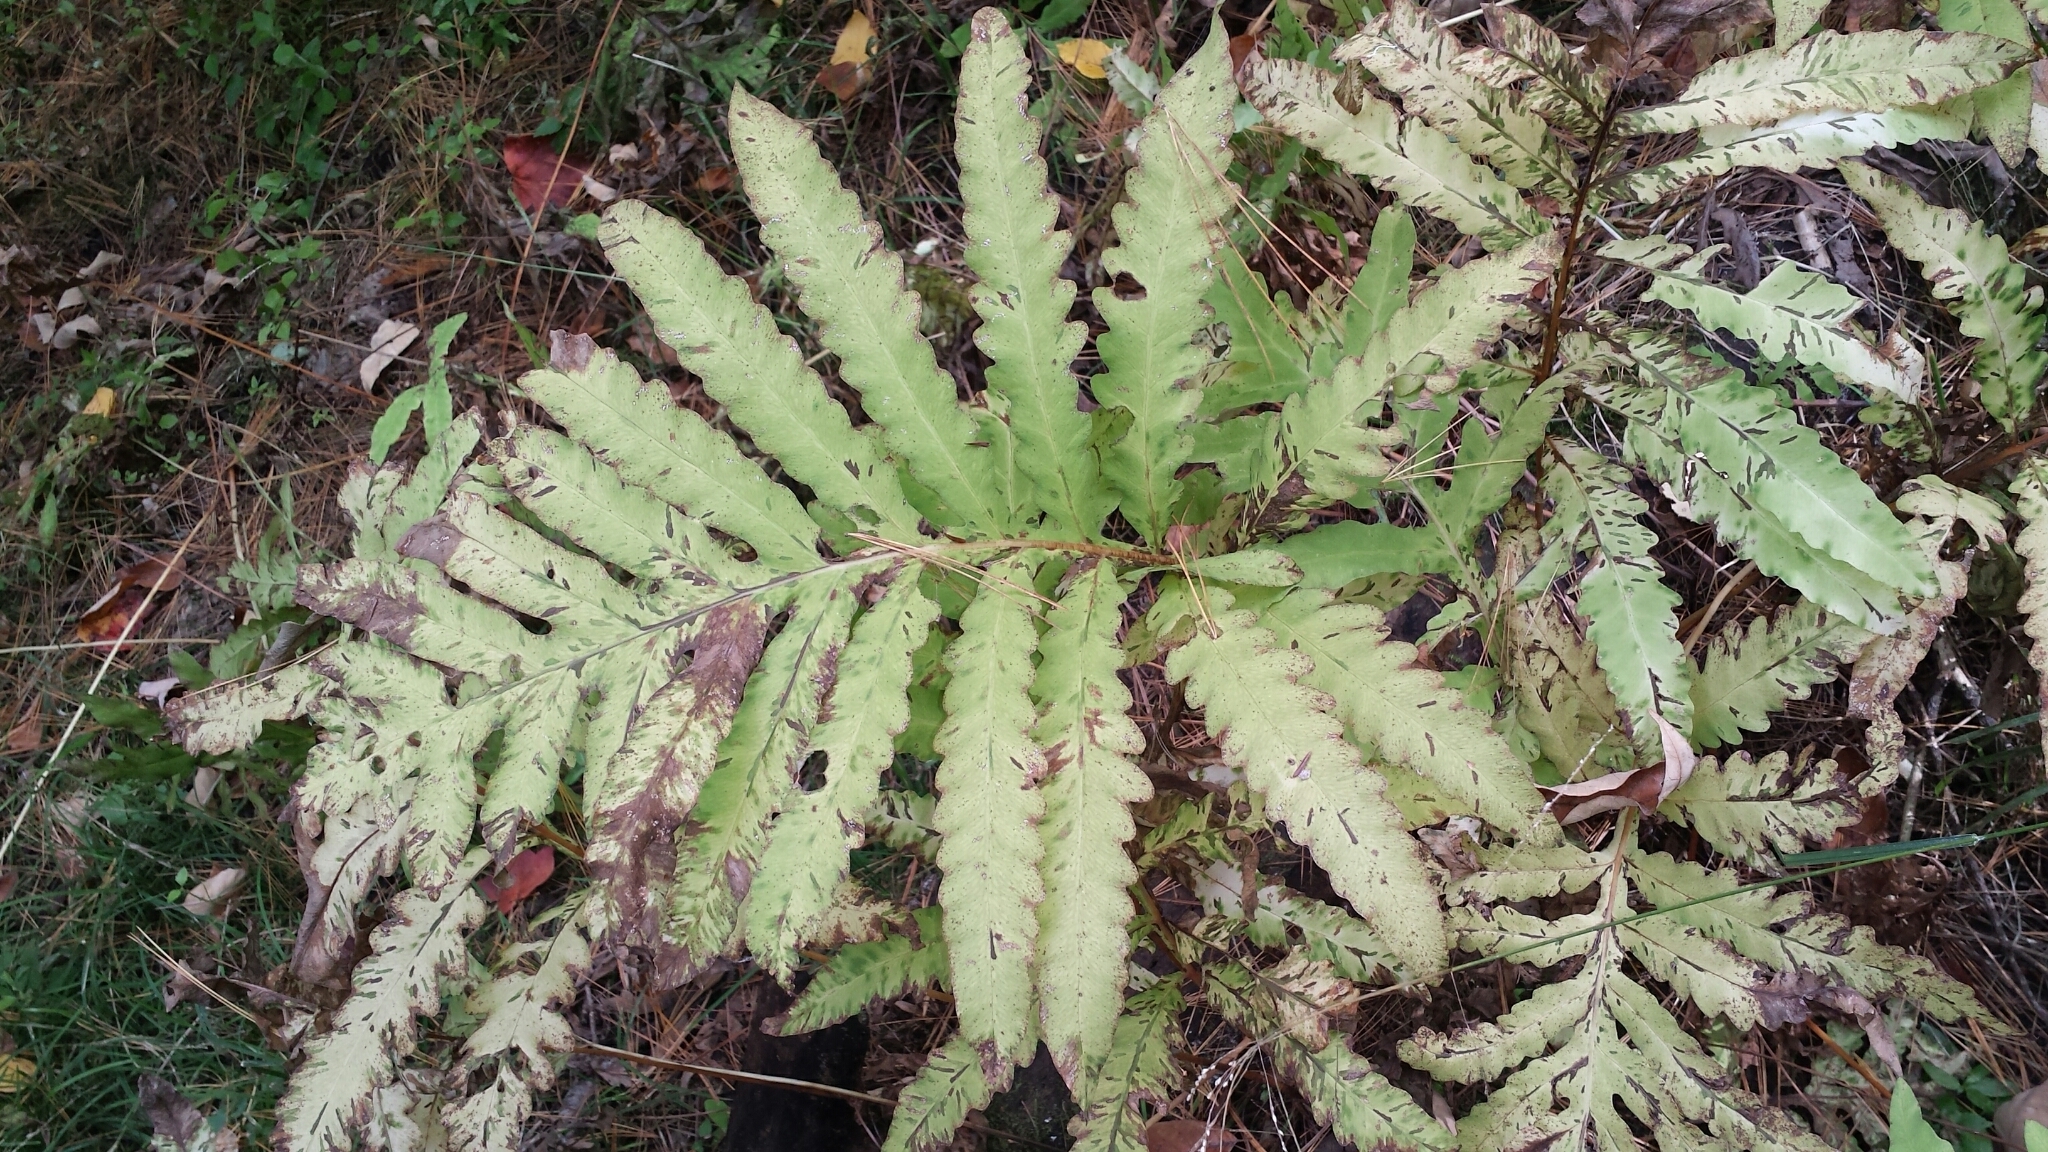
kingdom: Plantae
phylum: Tracheophyta
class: Polypodiopsida
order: Polypodiales
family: Onocleaceae
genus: Onoclea
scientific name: Onoclea sensibilis
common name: Sensitive fern
